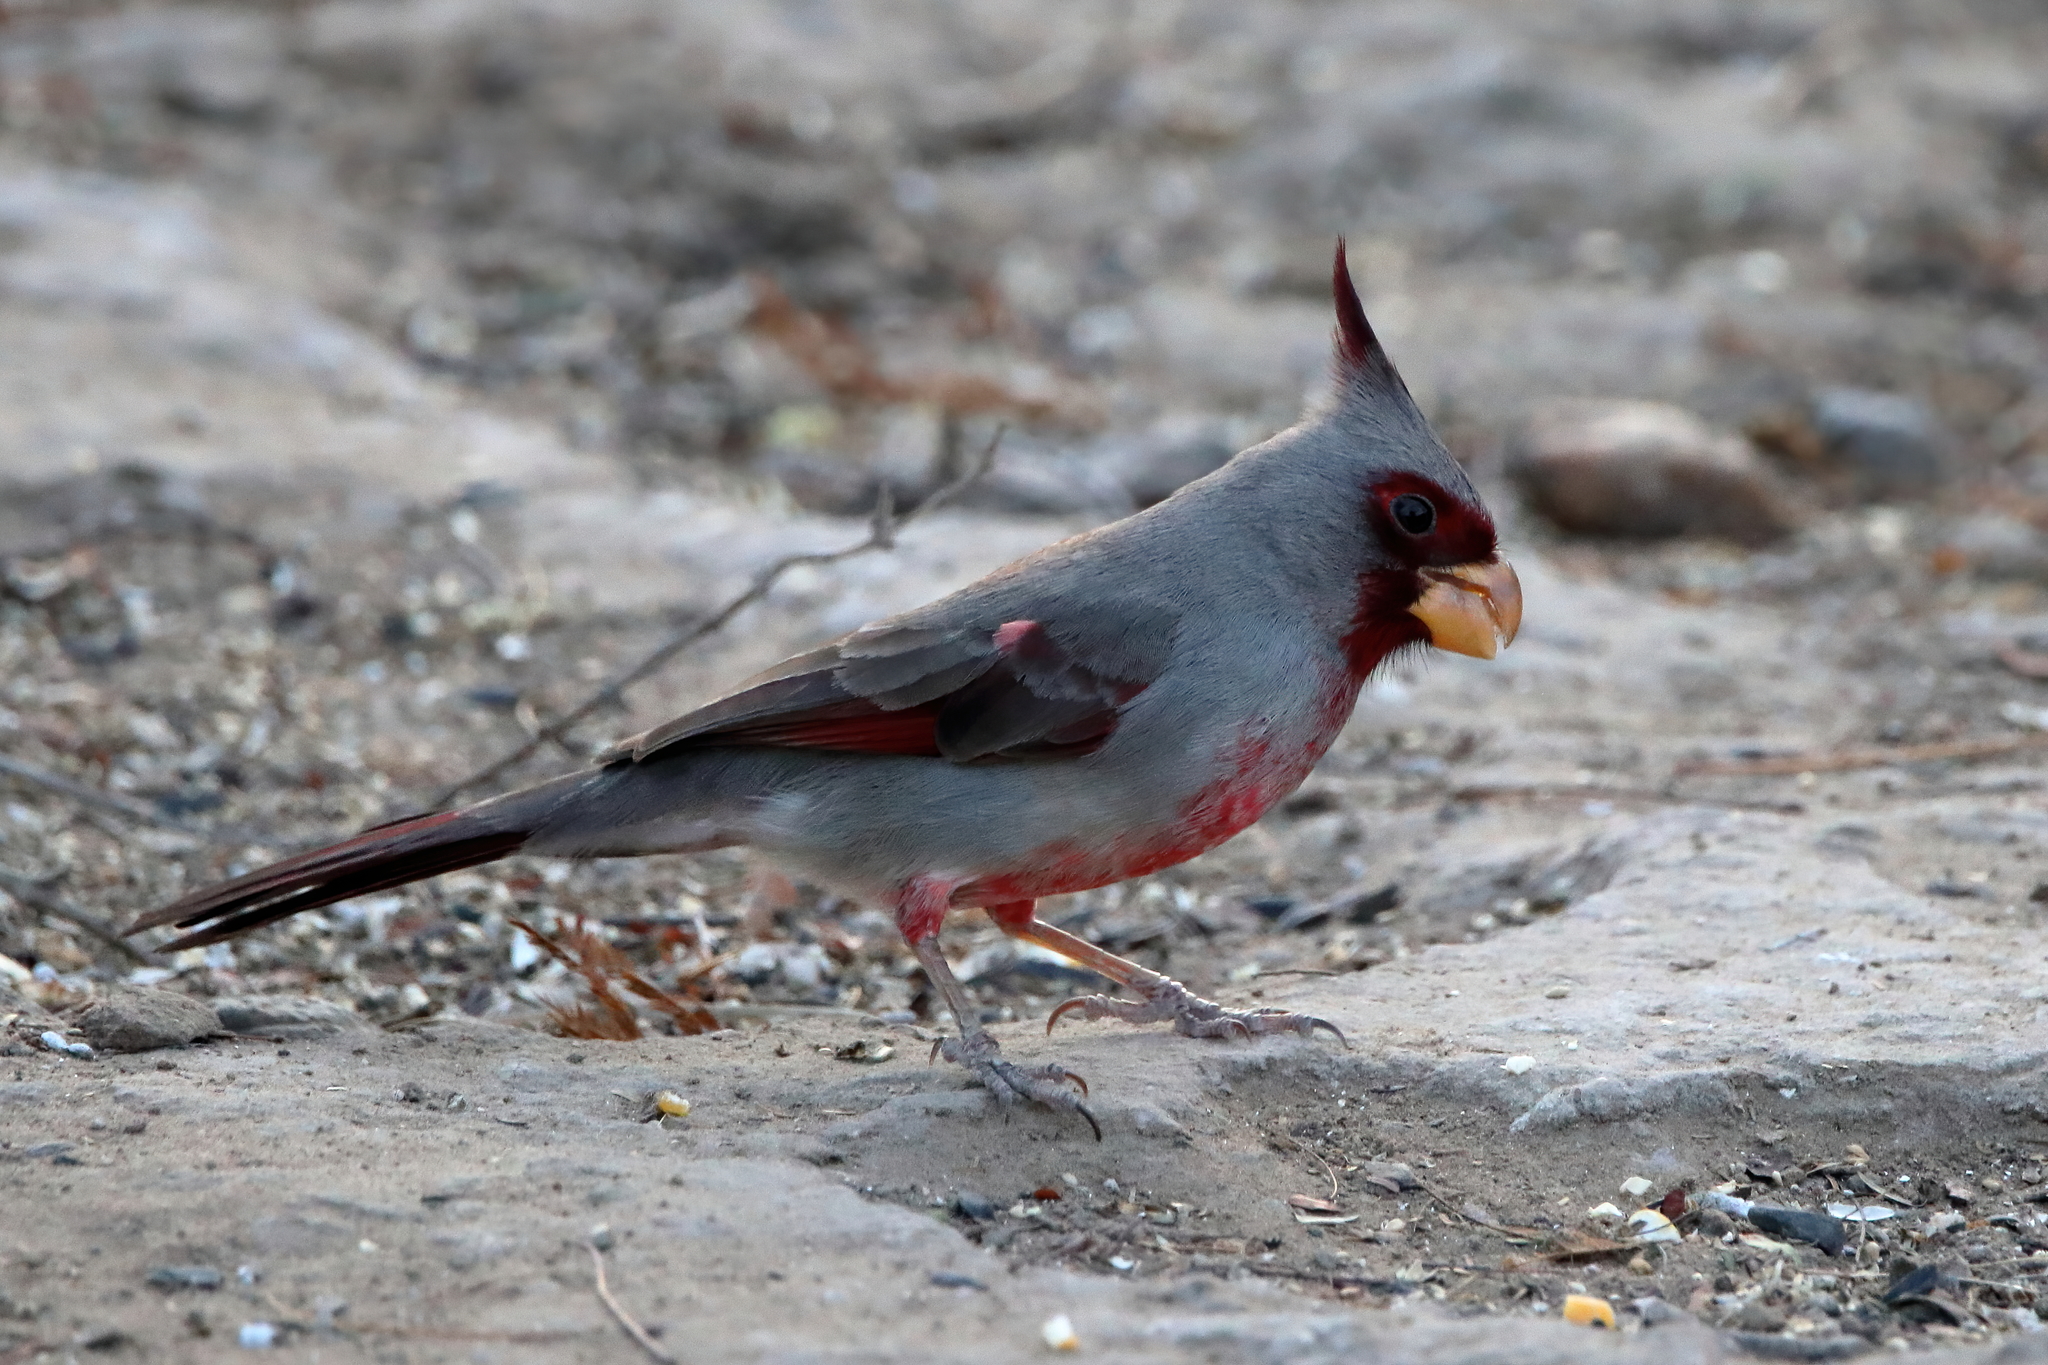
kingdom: Animalia
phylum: Chordata
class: Aves
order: Passeriformes
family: Cardinalidae
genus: Cardinalis
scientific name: Cardinalis sinuatus
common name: Pyrrhuloxia
